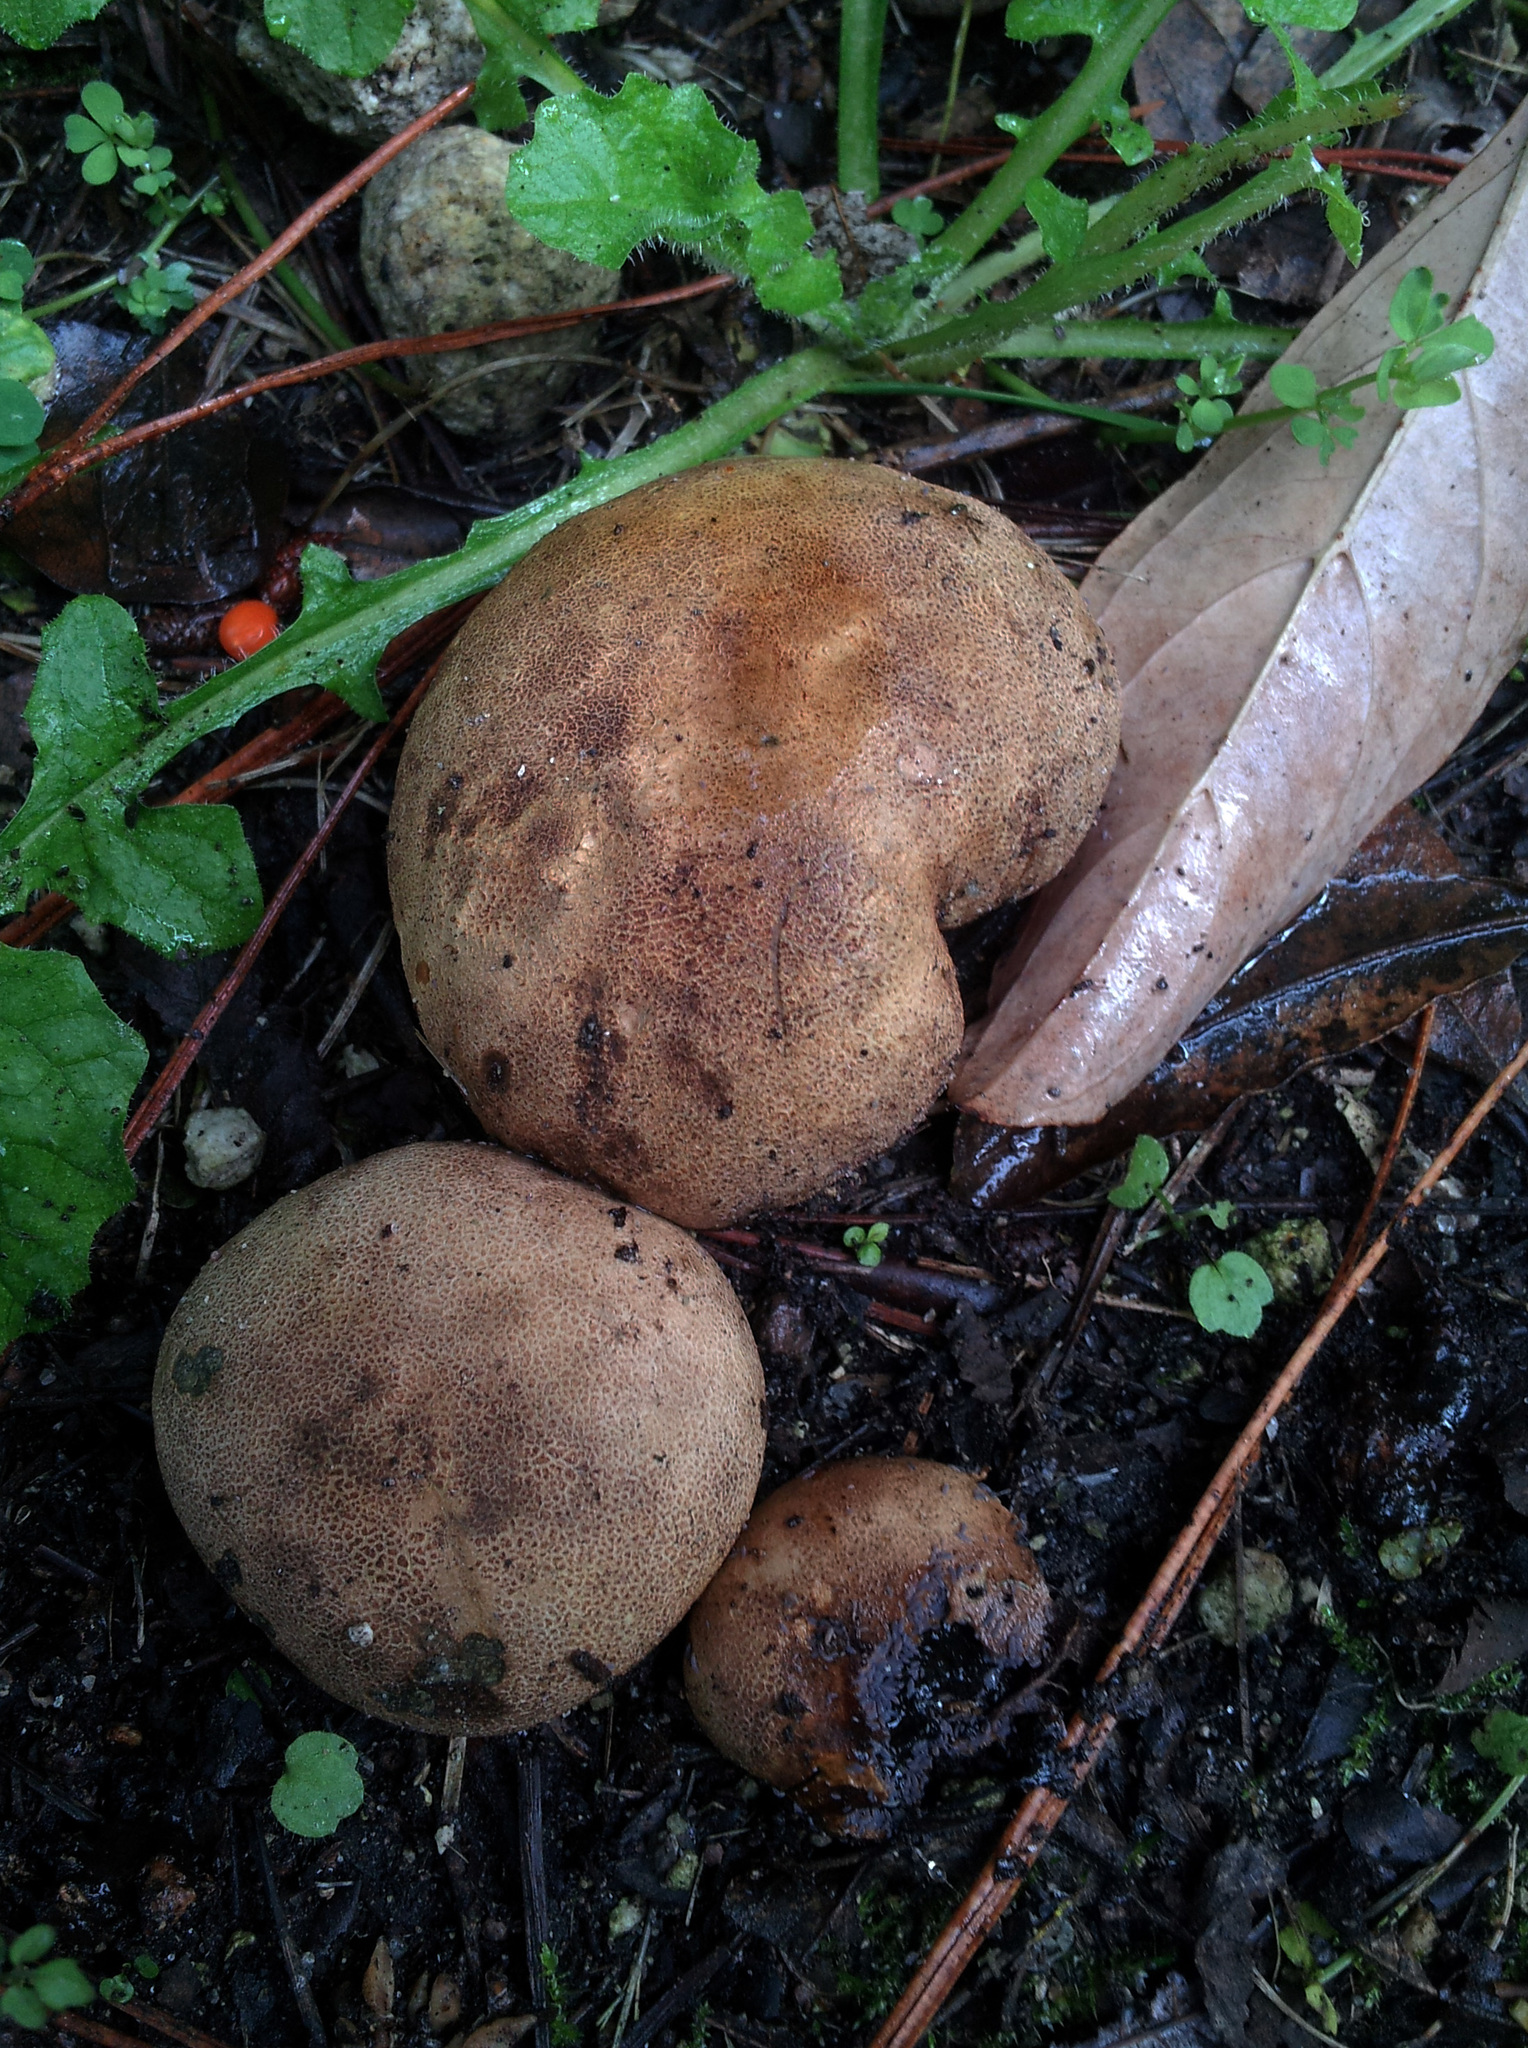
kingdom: Fungi
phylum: Basidiomycota
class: Agaricomycetes
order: Boletales
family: Sclerodermataceae
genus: Scleroderma
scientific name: Scleroderma bovista
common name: Potato earthball
